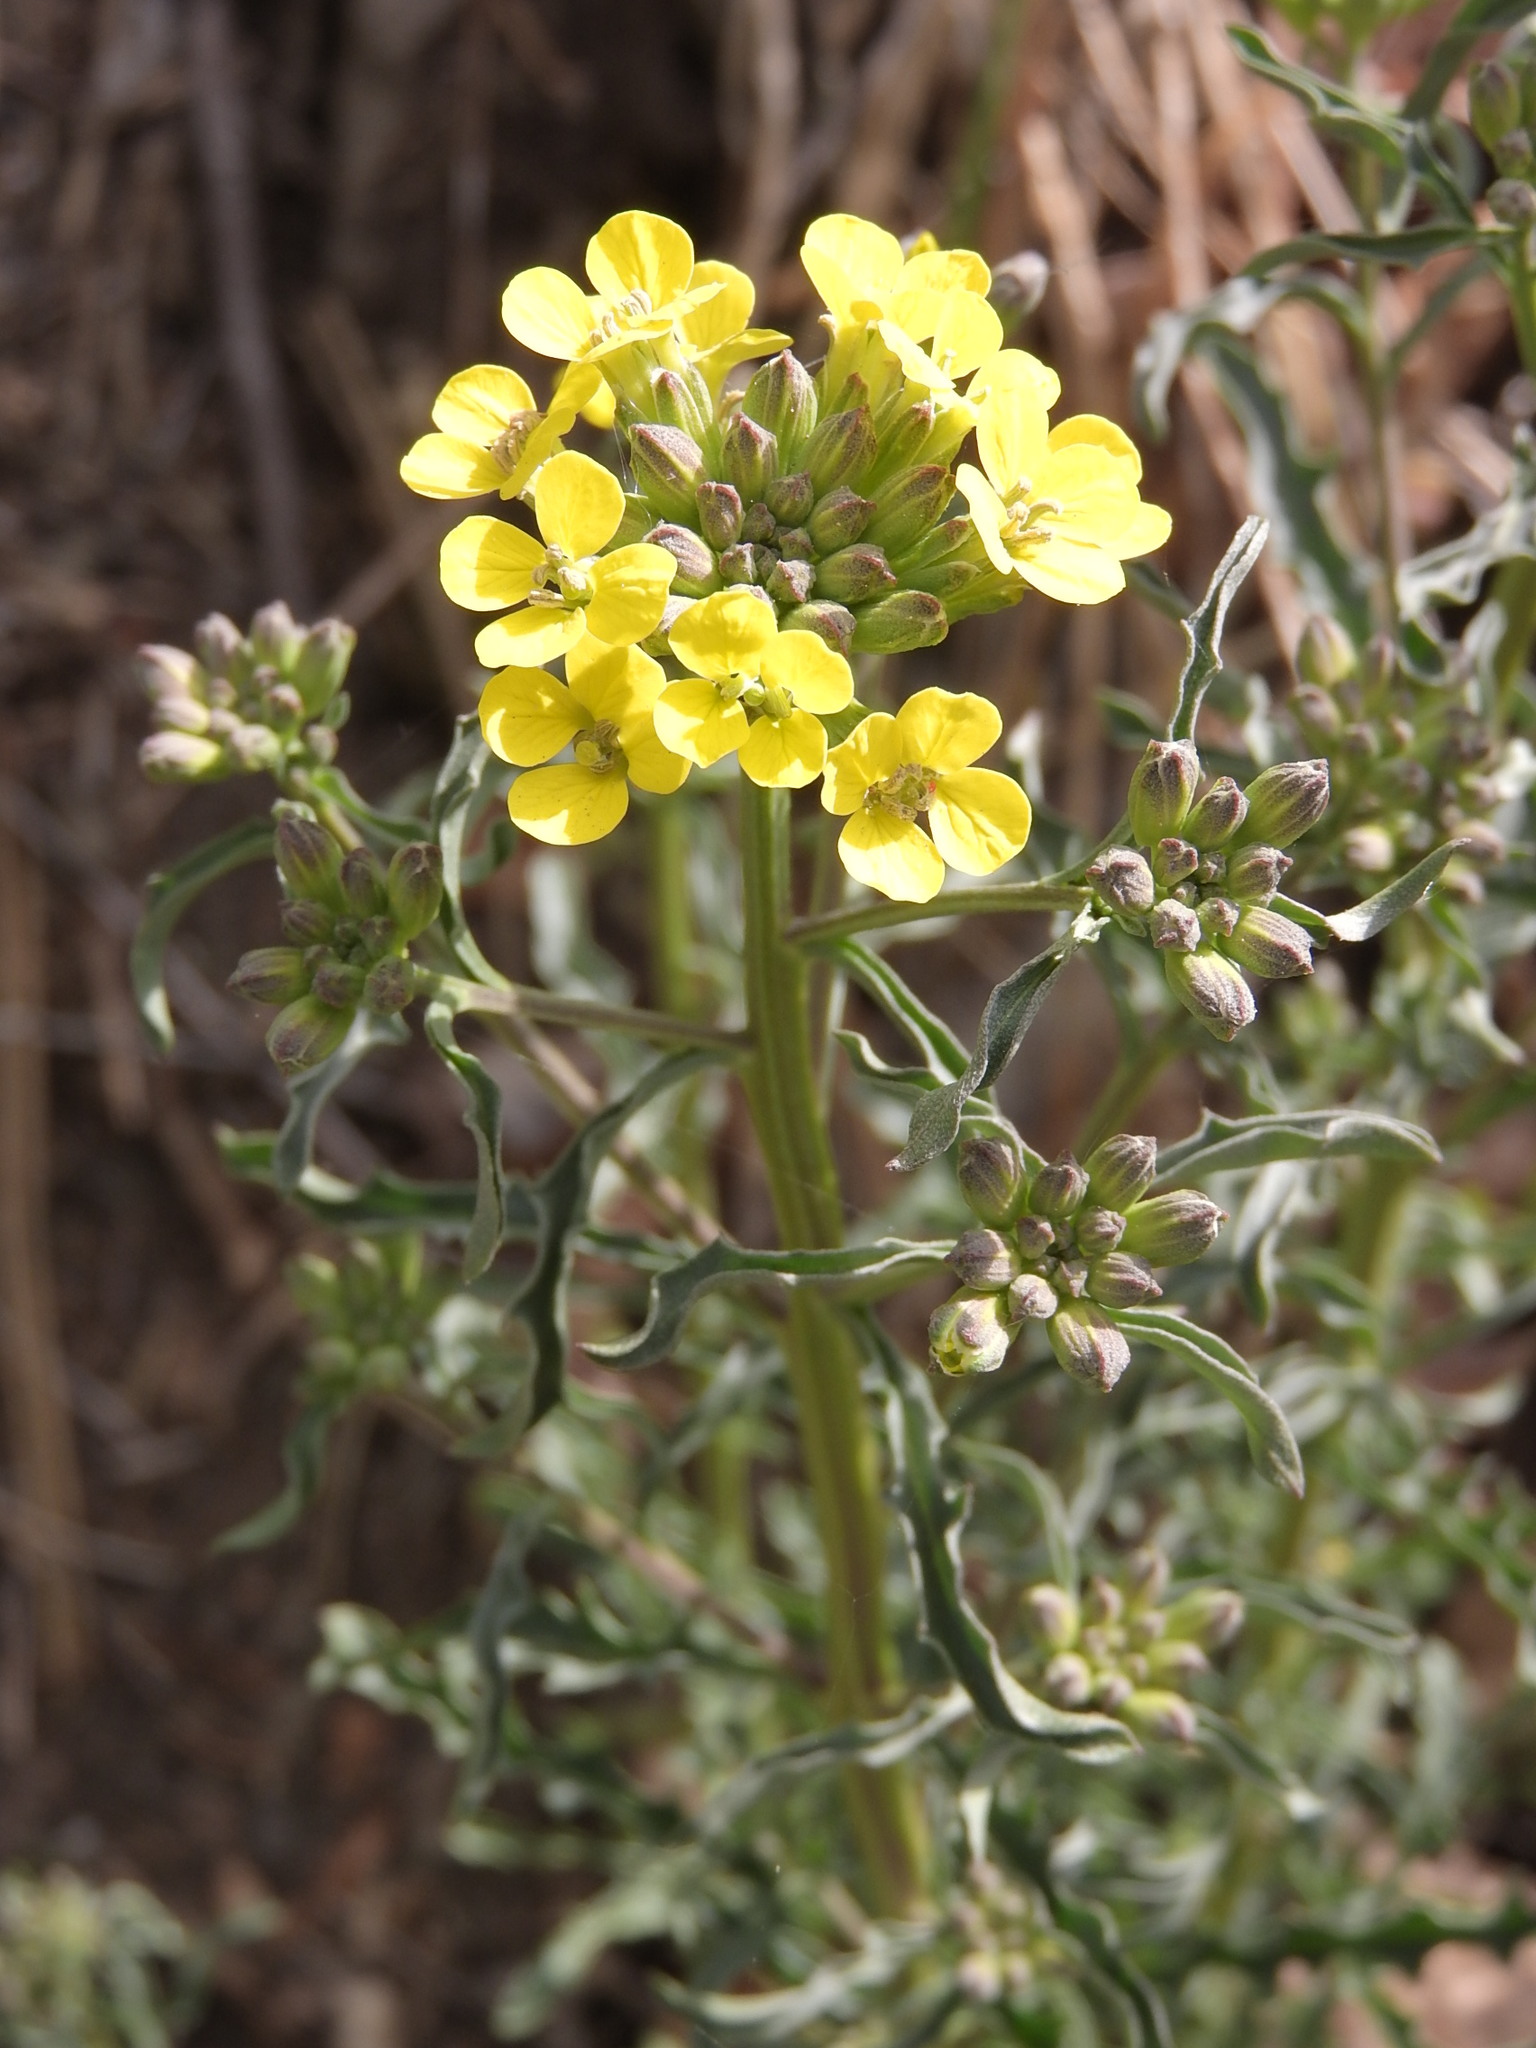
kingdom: Plantae
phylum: Tracheophyta
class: Magnoliopsida
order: Brassicales
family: Brassicaceae
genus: Erysimum
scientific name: Erysimum crepidifolium
